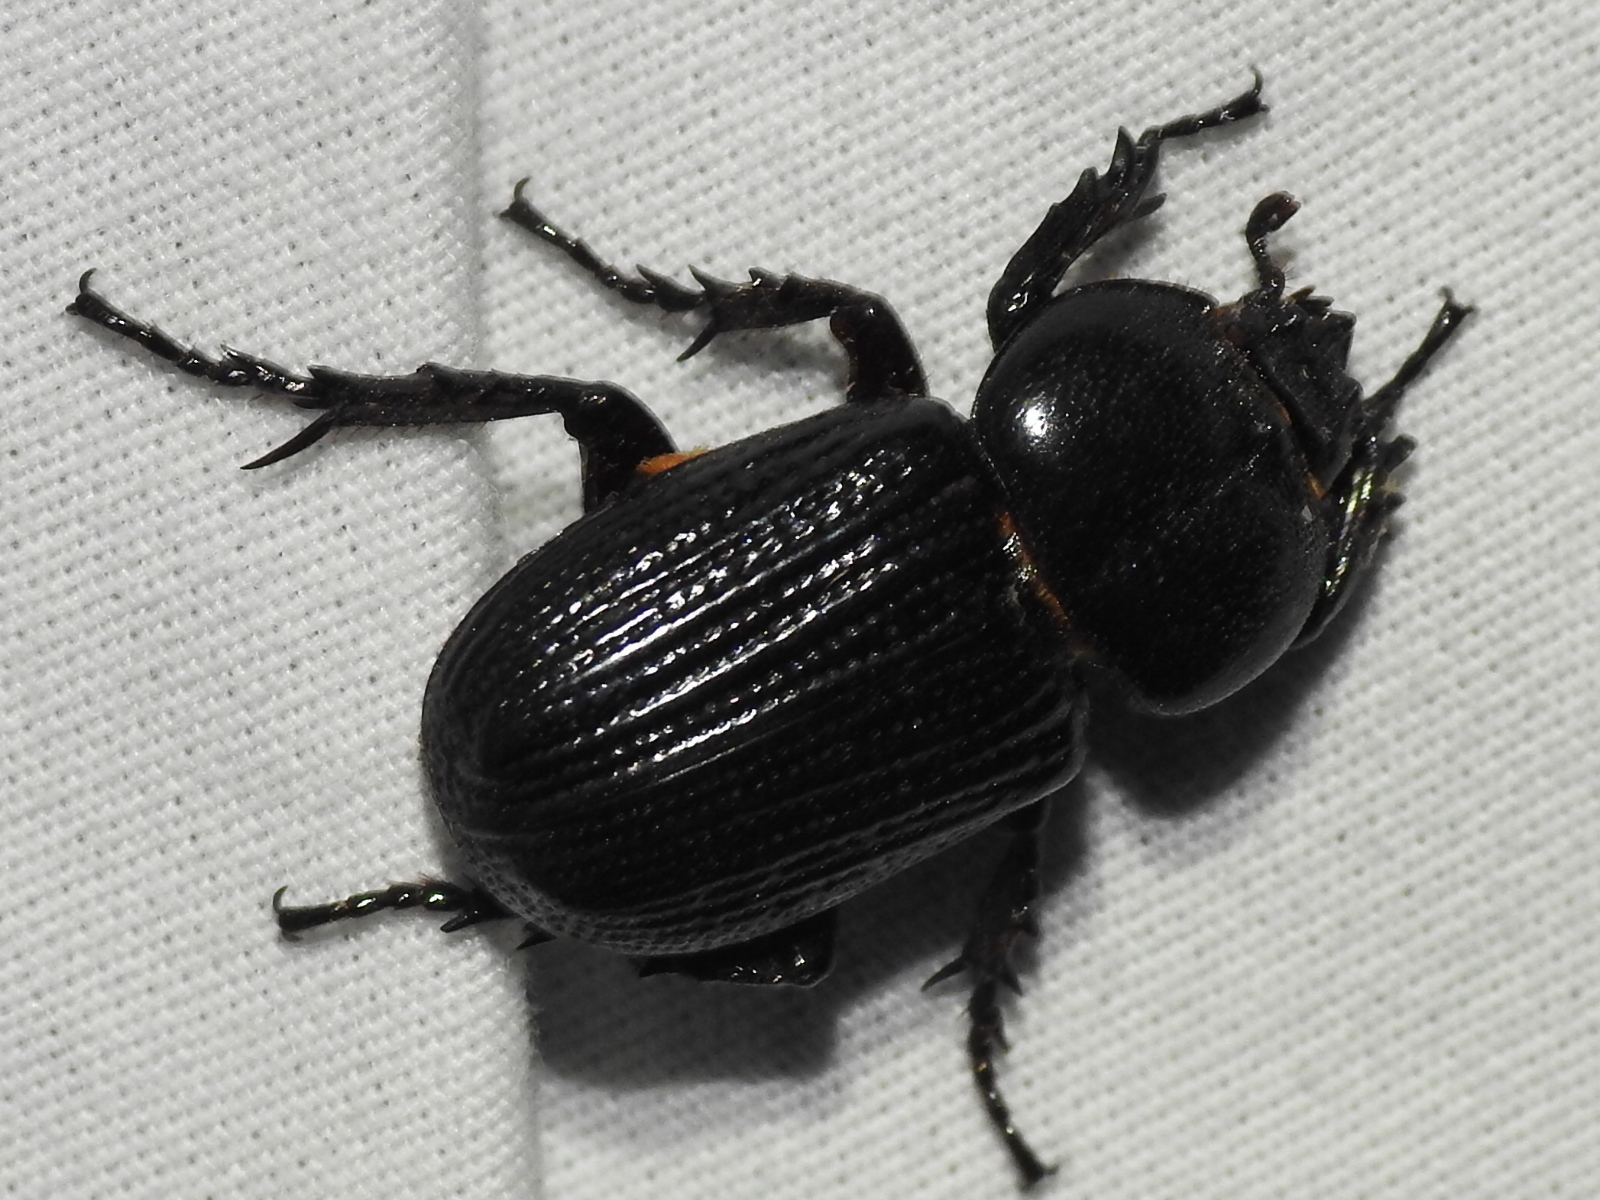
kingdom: Animalia
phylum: Arthropoda
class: Insecta
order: Coleoptera
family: Scarabaeidae
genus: Phileurus
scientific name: Phileurus valgus
